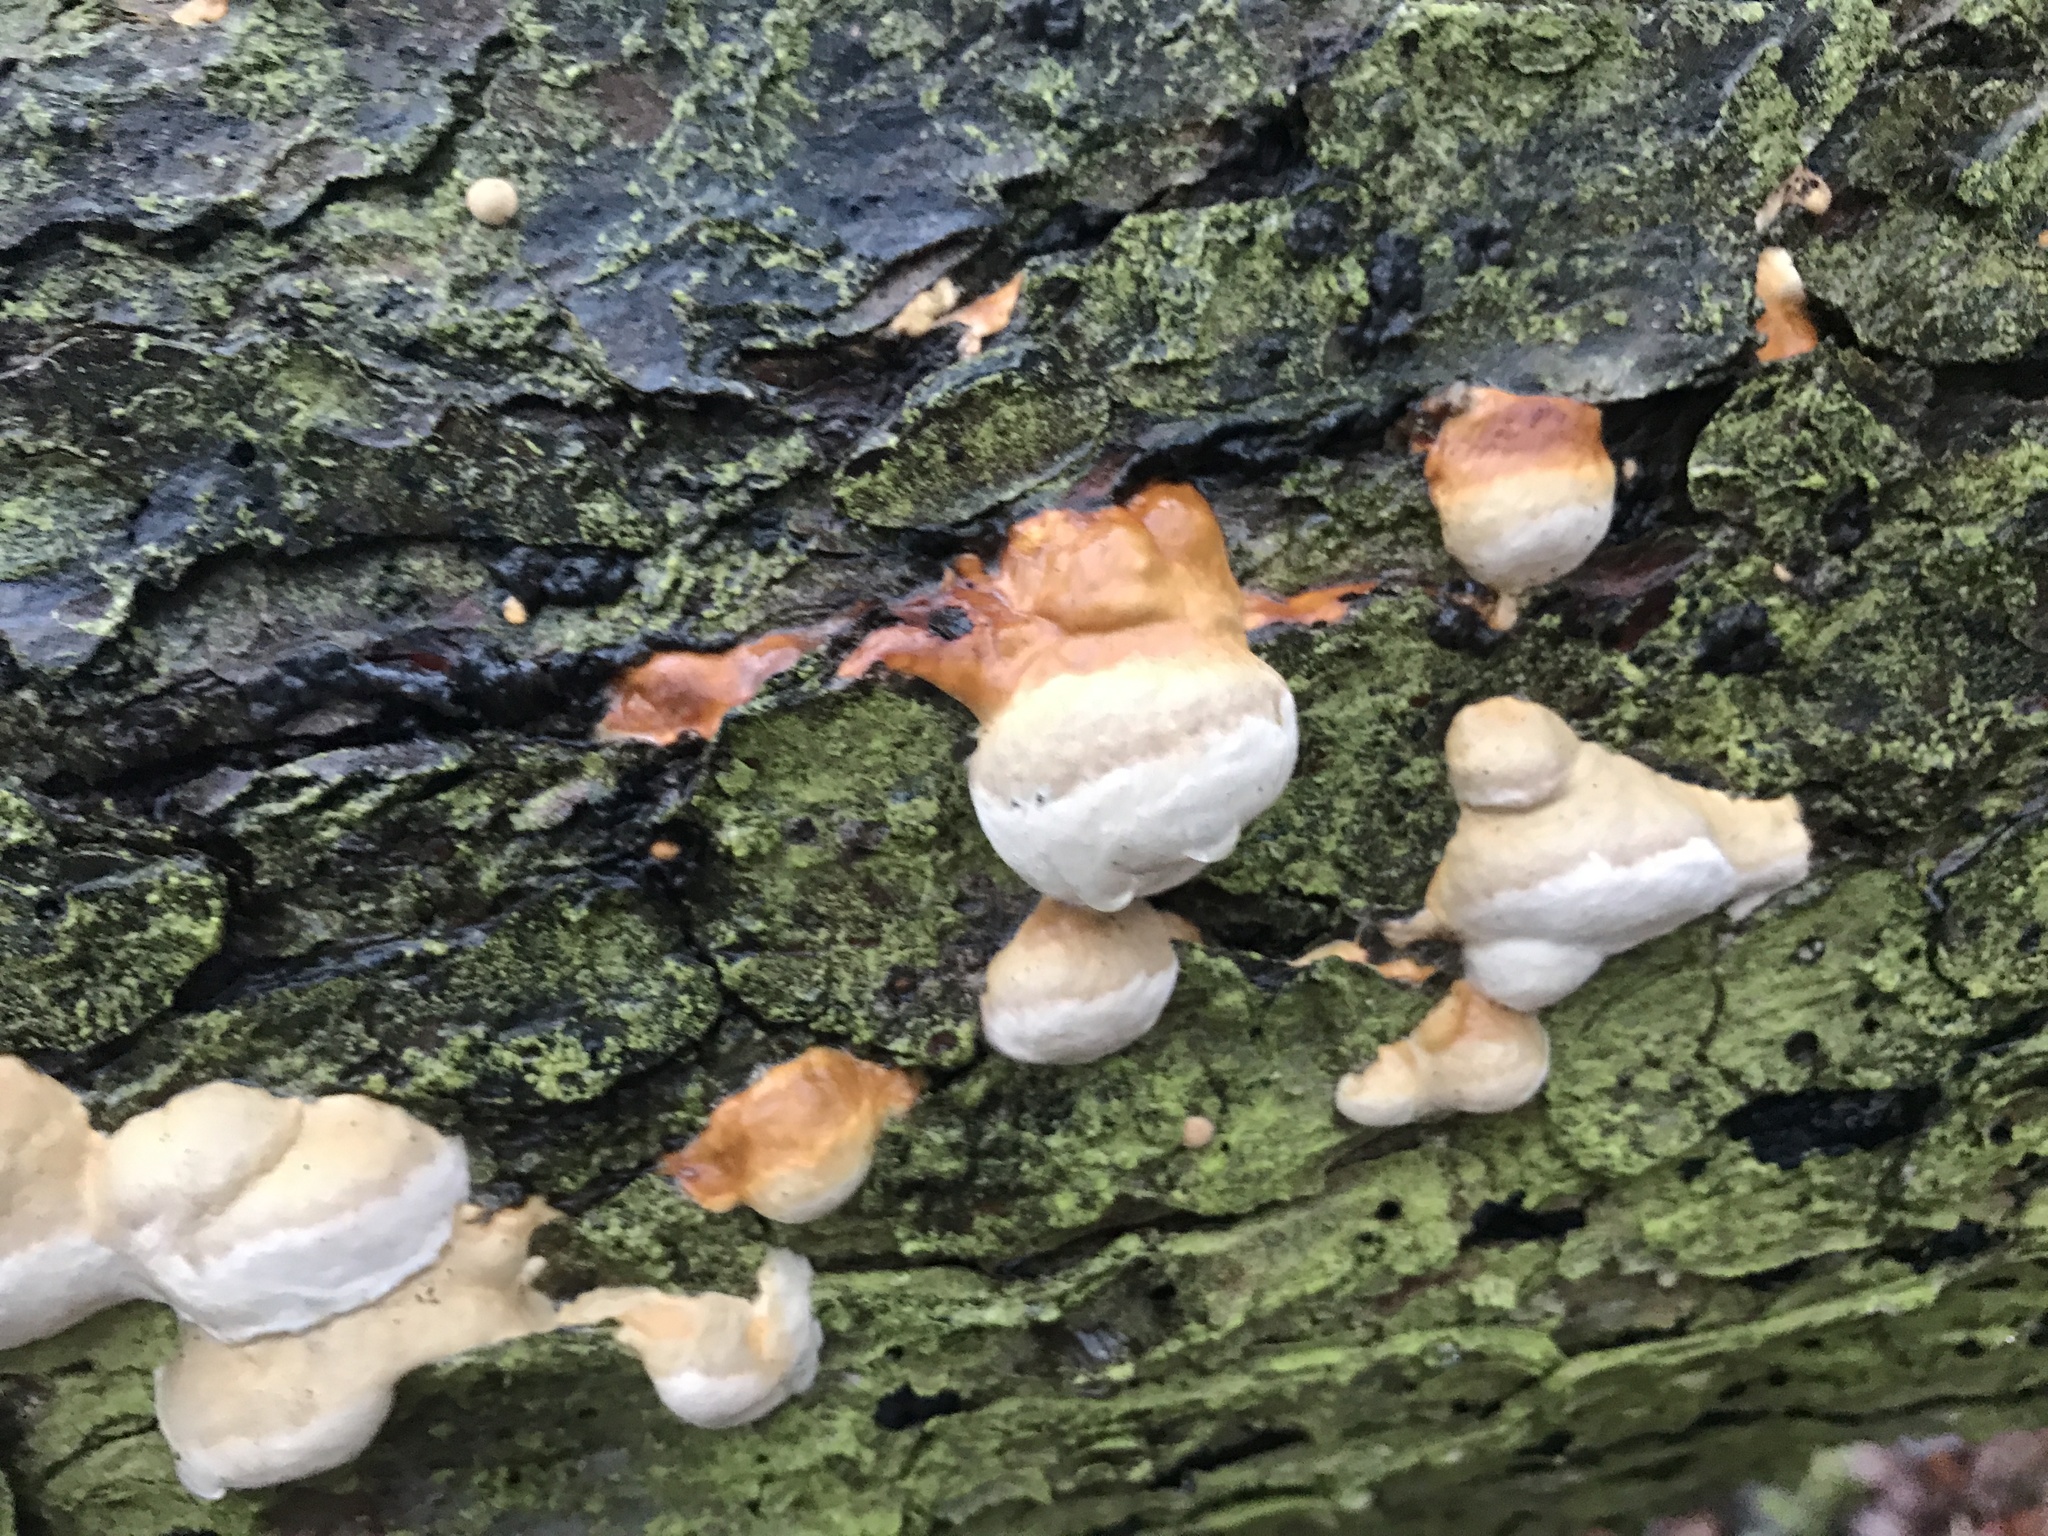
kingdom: Fungi
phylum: Basidiomycota
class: Agaricomycetes
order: Polyporales
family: Fomitopsidaceae
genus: Fomitopsis
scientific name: Fomitopsis pinicola
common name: Red-belted bracket
